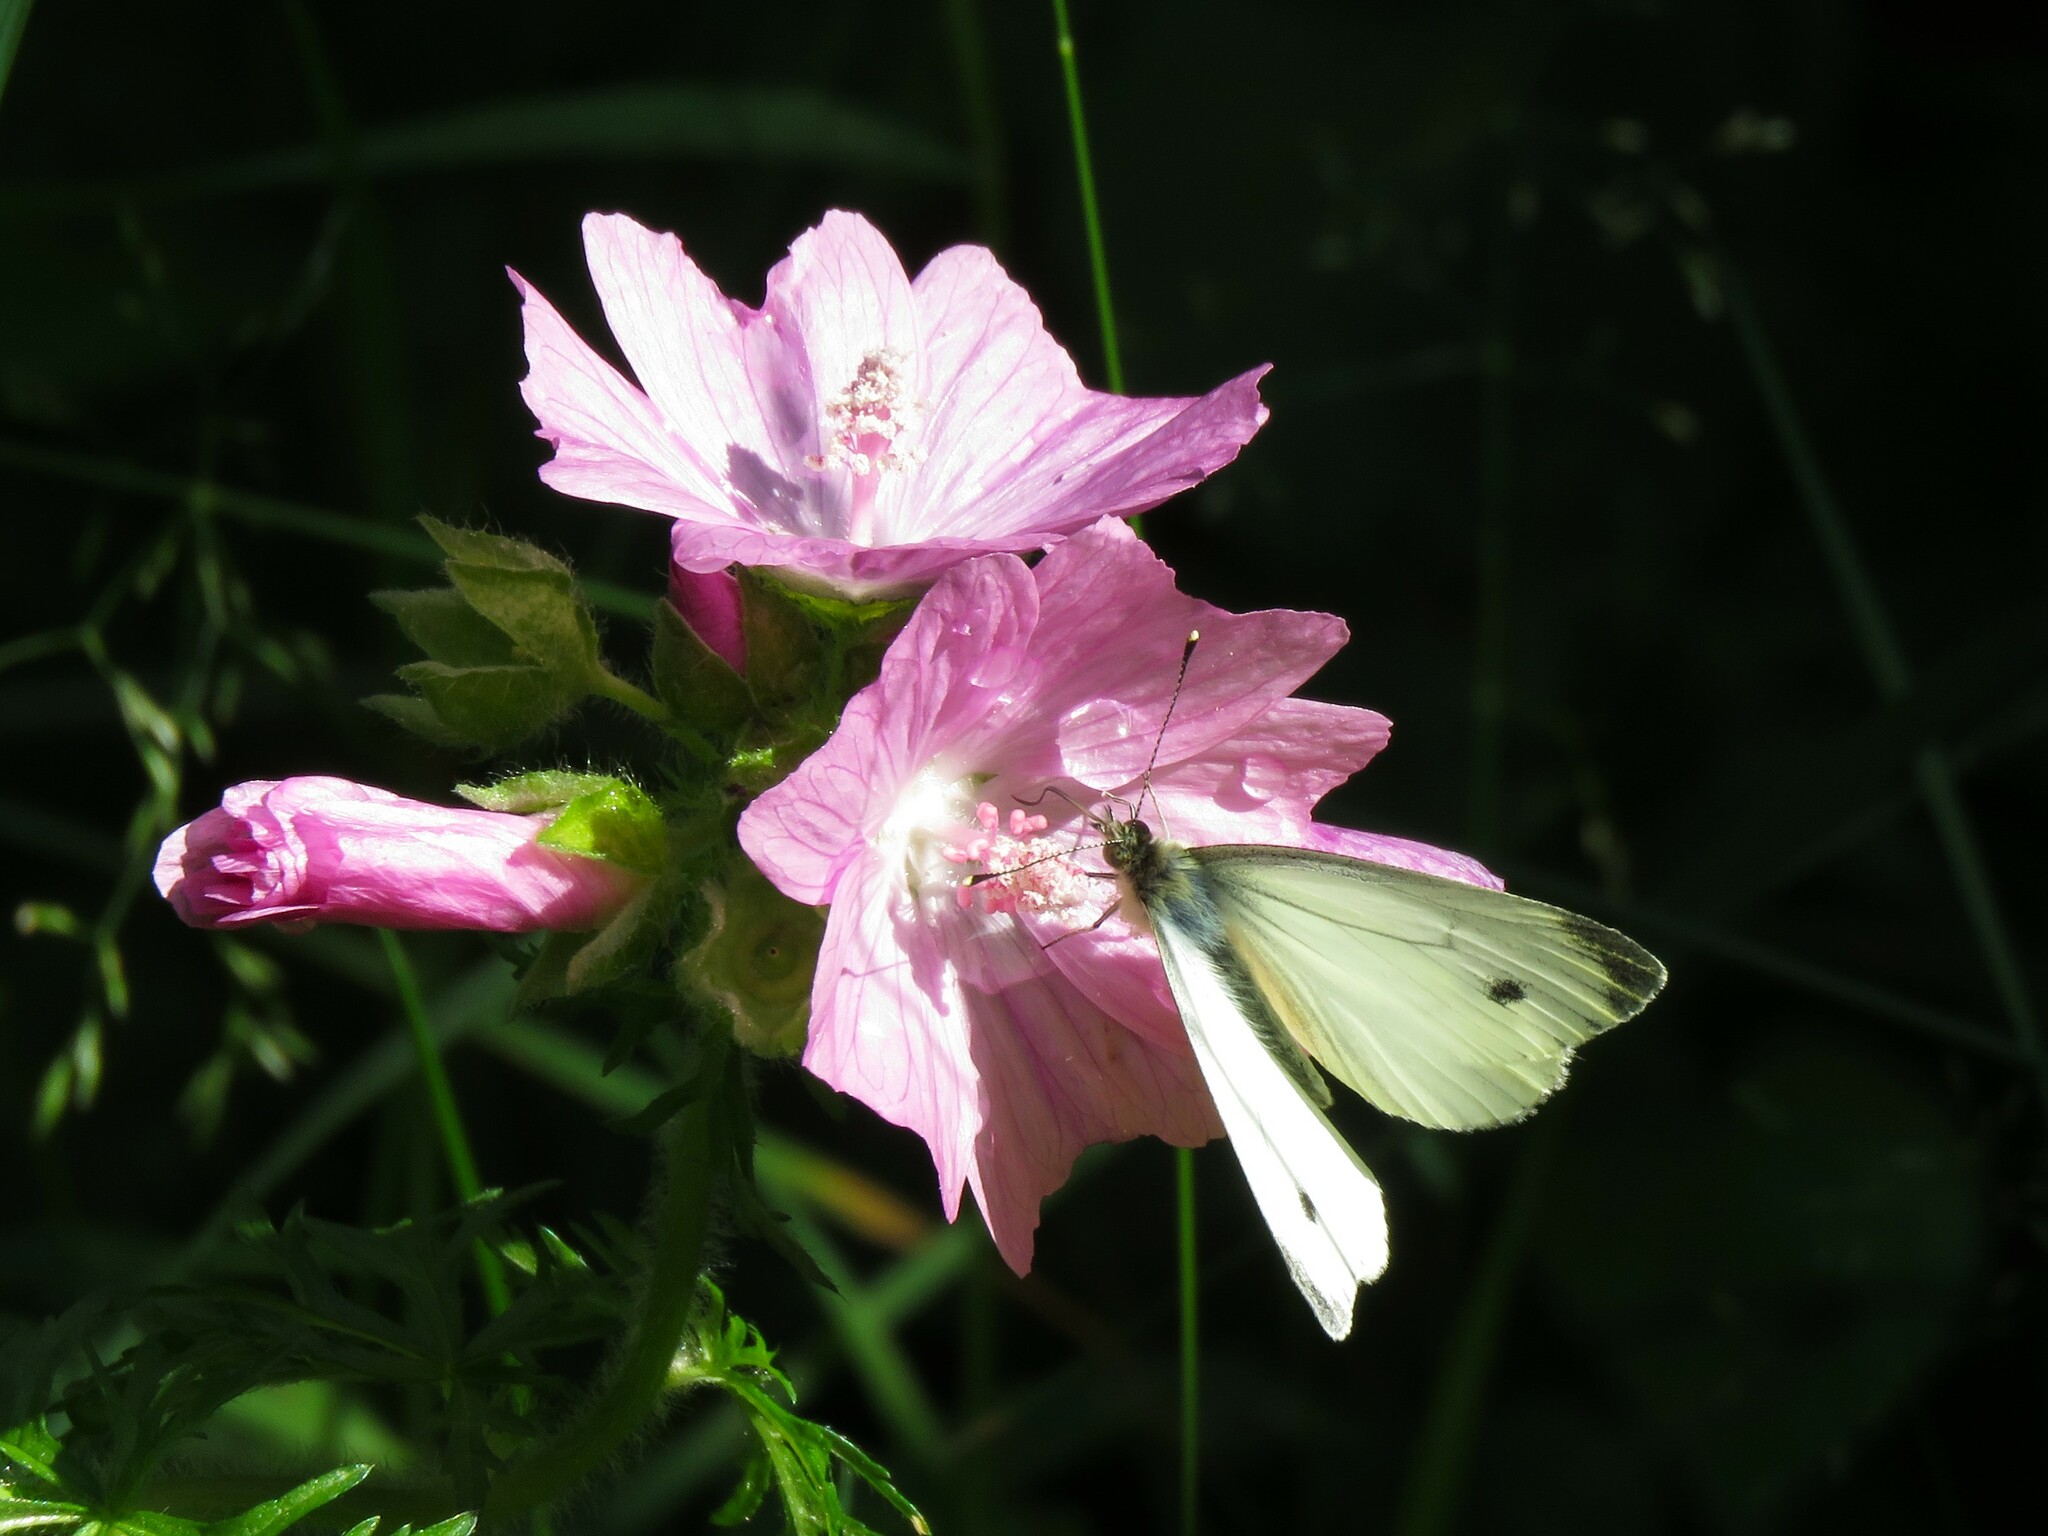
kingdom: Animalia
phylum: Arthropoda
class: Insecta
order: Lepidoptera
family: Pieridae
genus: Pieris
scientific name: Pieris napi
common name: Green-veined white
